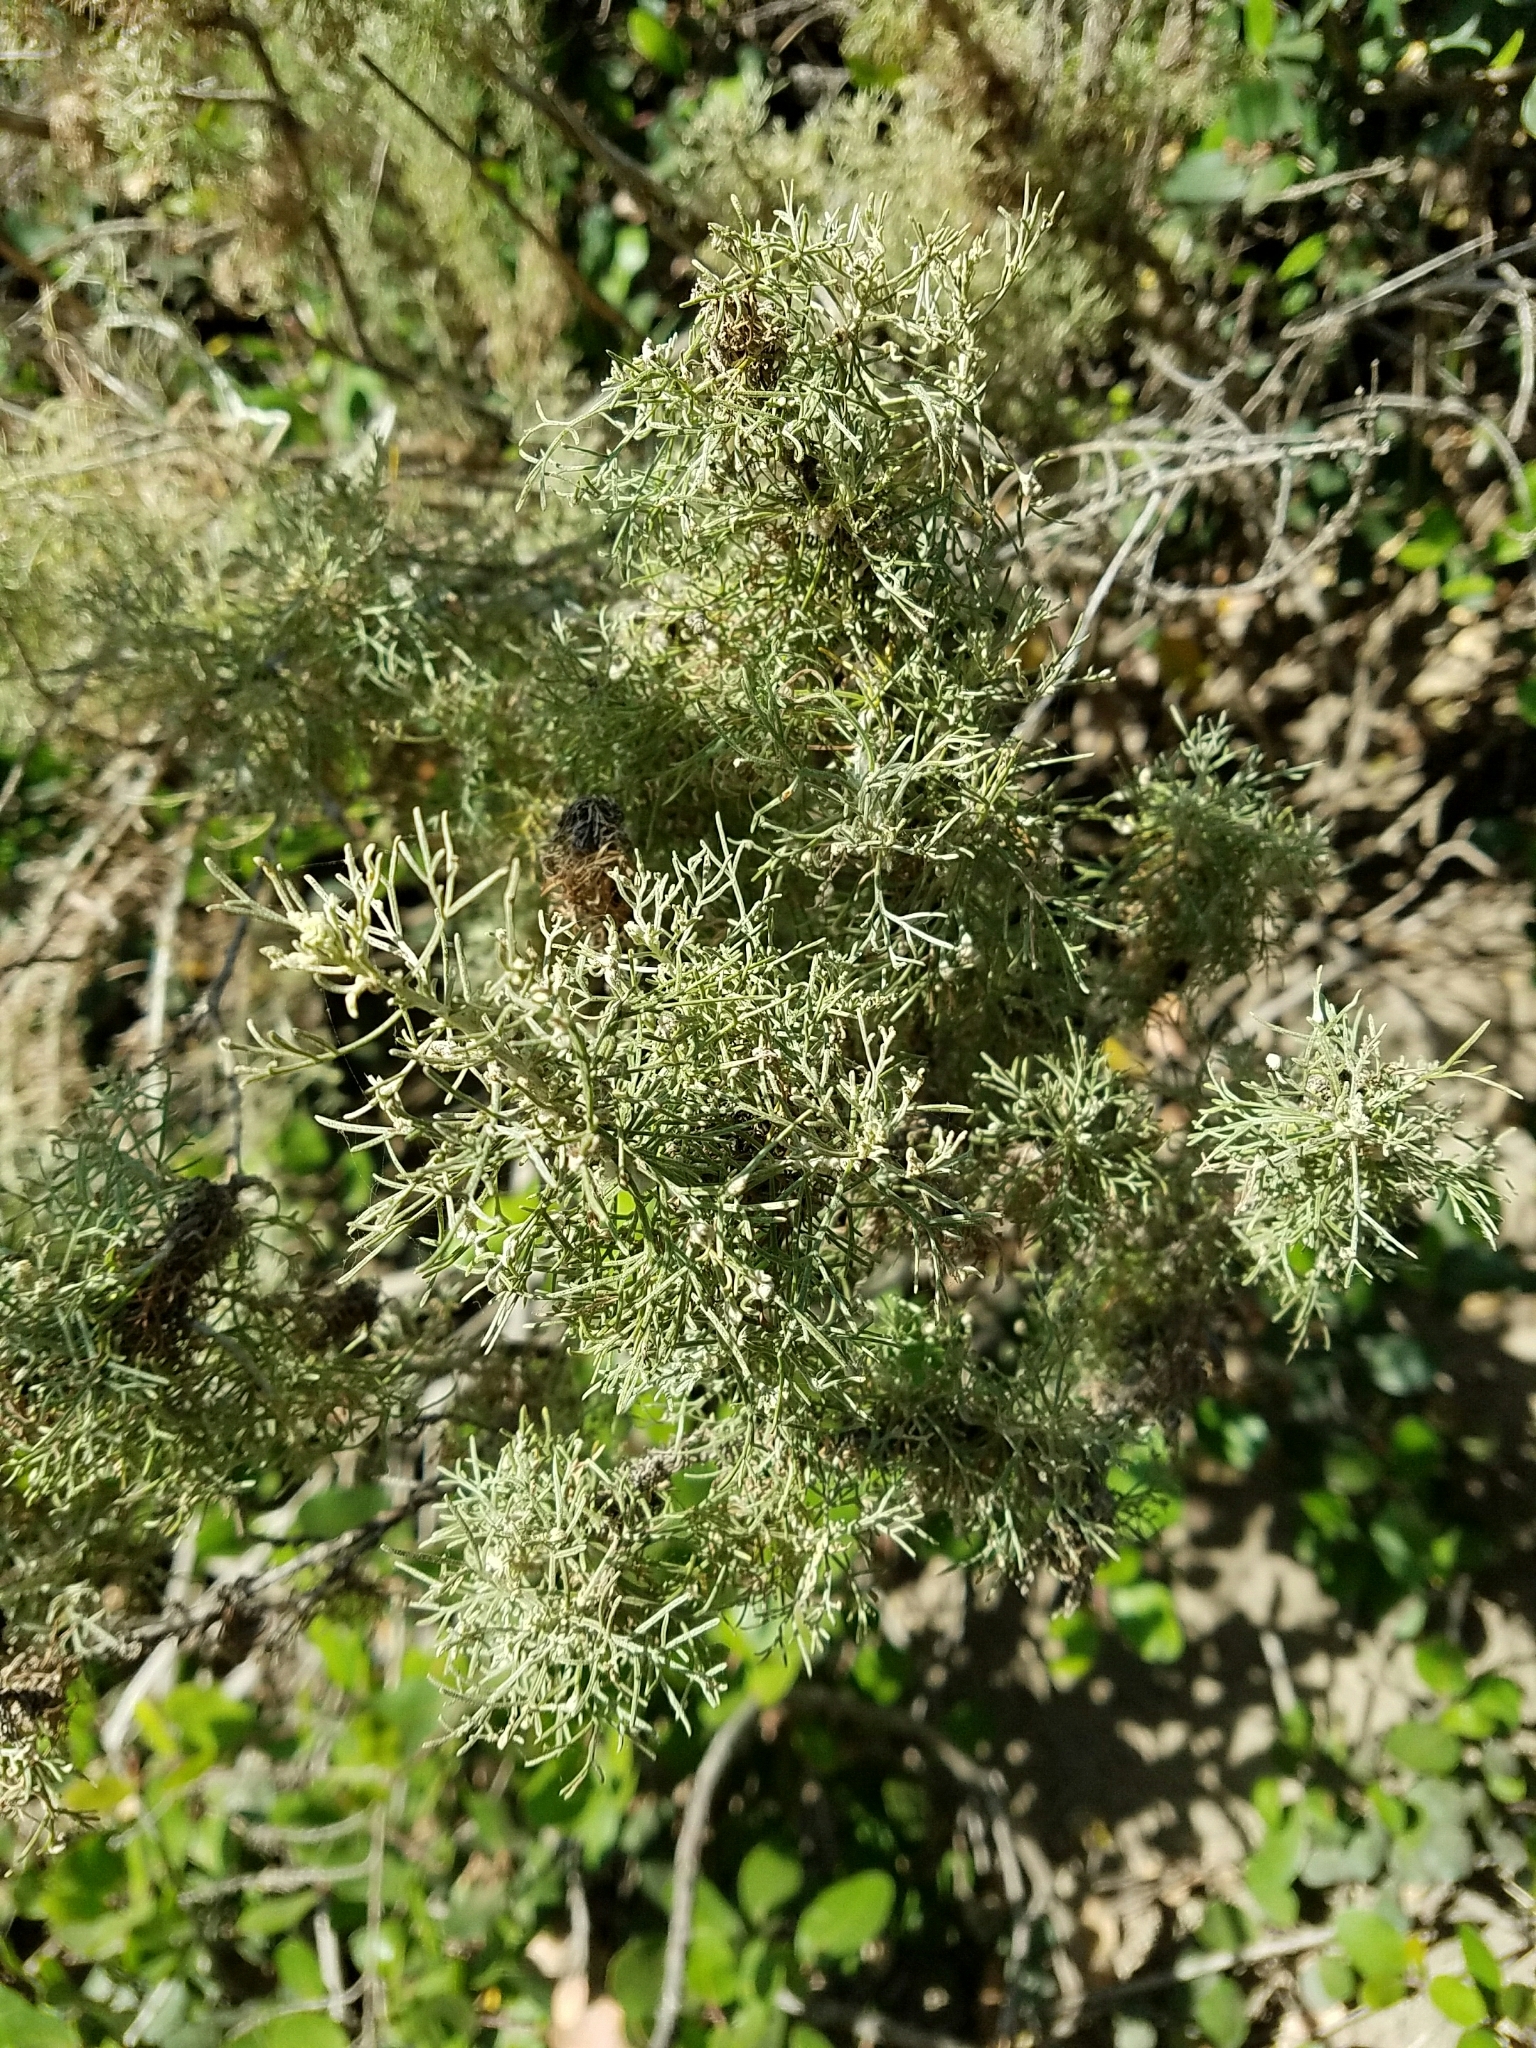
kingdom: Plantae
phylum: Tracheophyta
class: Magnoliopsida
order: Asterales
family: Asteraceae
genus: Artemisia
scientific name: Artemisia californica
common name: California sagebrush
